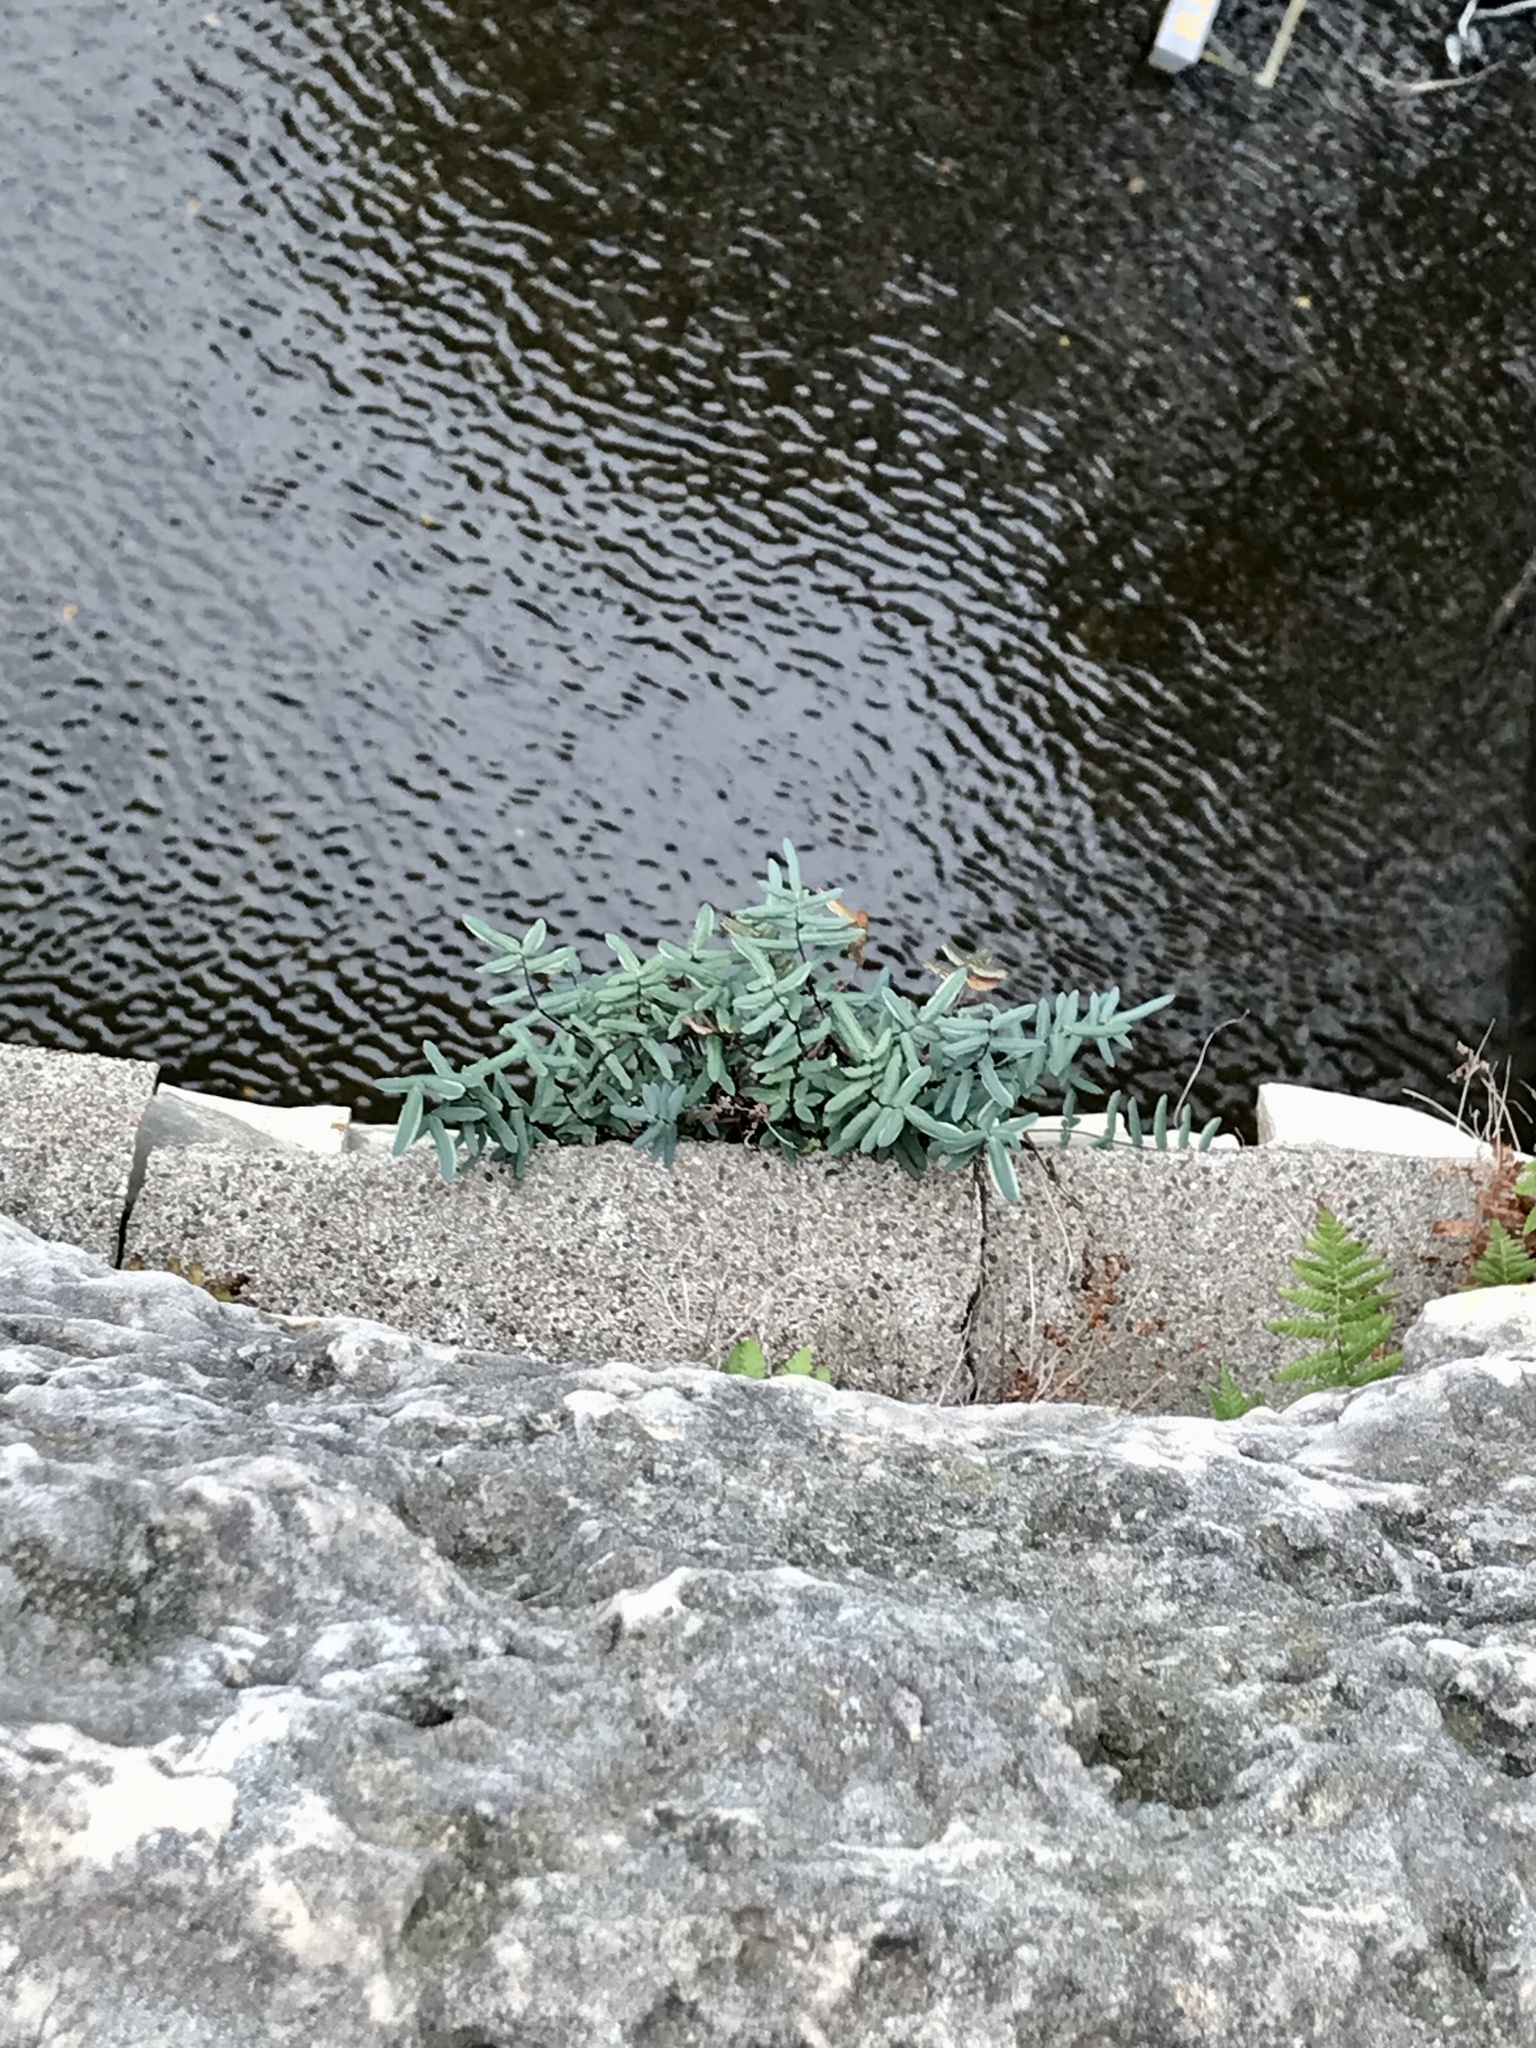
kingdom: Plantae
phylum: Tracheophyta
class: Polypodiopsida
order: Polypodiales
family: Pteridaceae
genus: Pellaea
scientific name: Pellaea glabella
